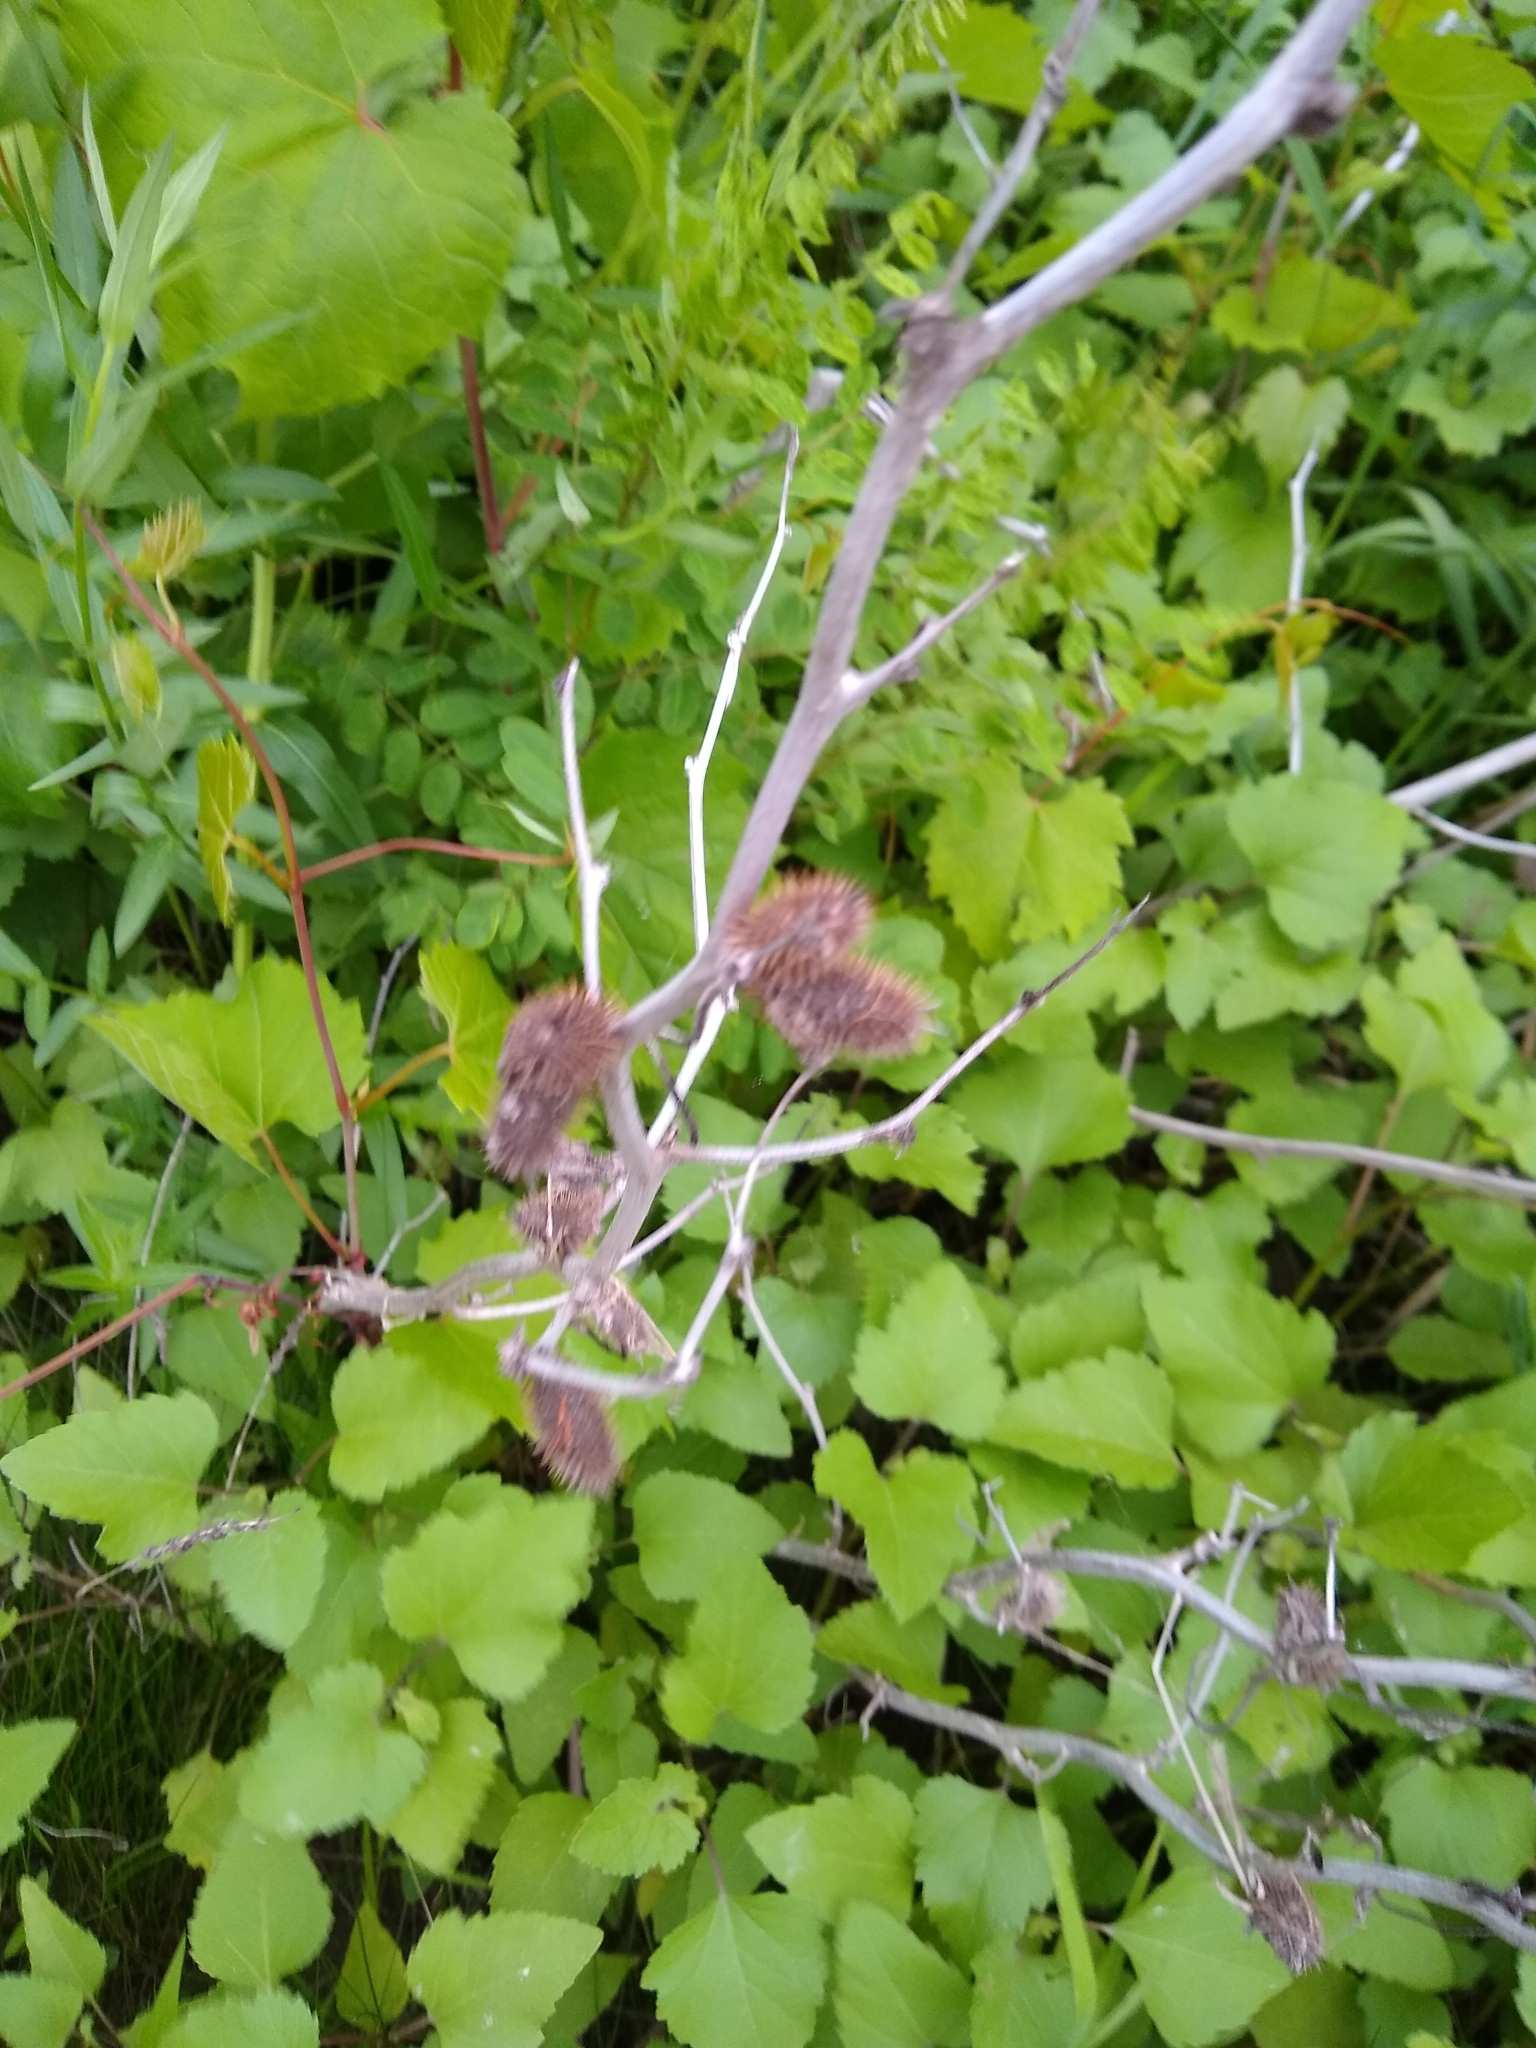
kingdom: Plantae
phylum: Tracheophyta
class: Magnoliopsida
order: Asterales
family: Asteraceae
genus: Xanthium
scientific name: Xanthium strumarium
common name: Rough cocklebur
